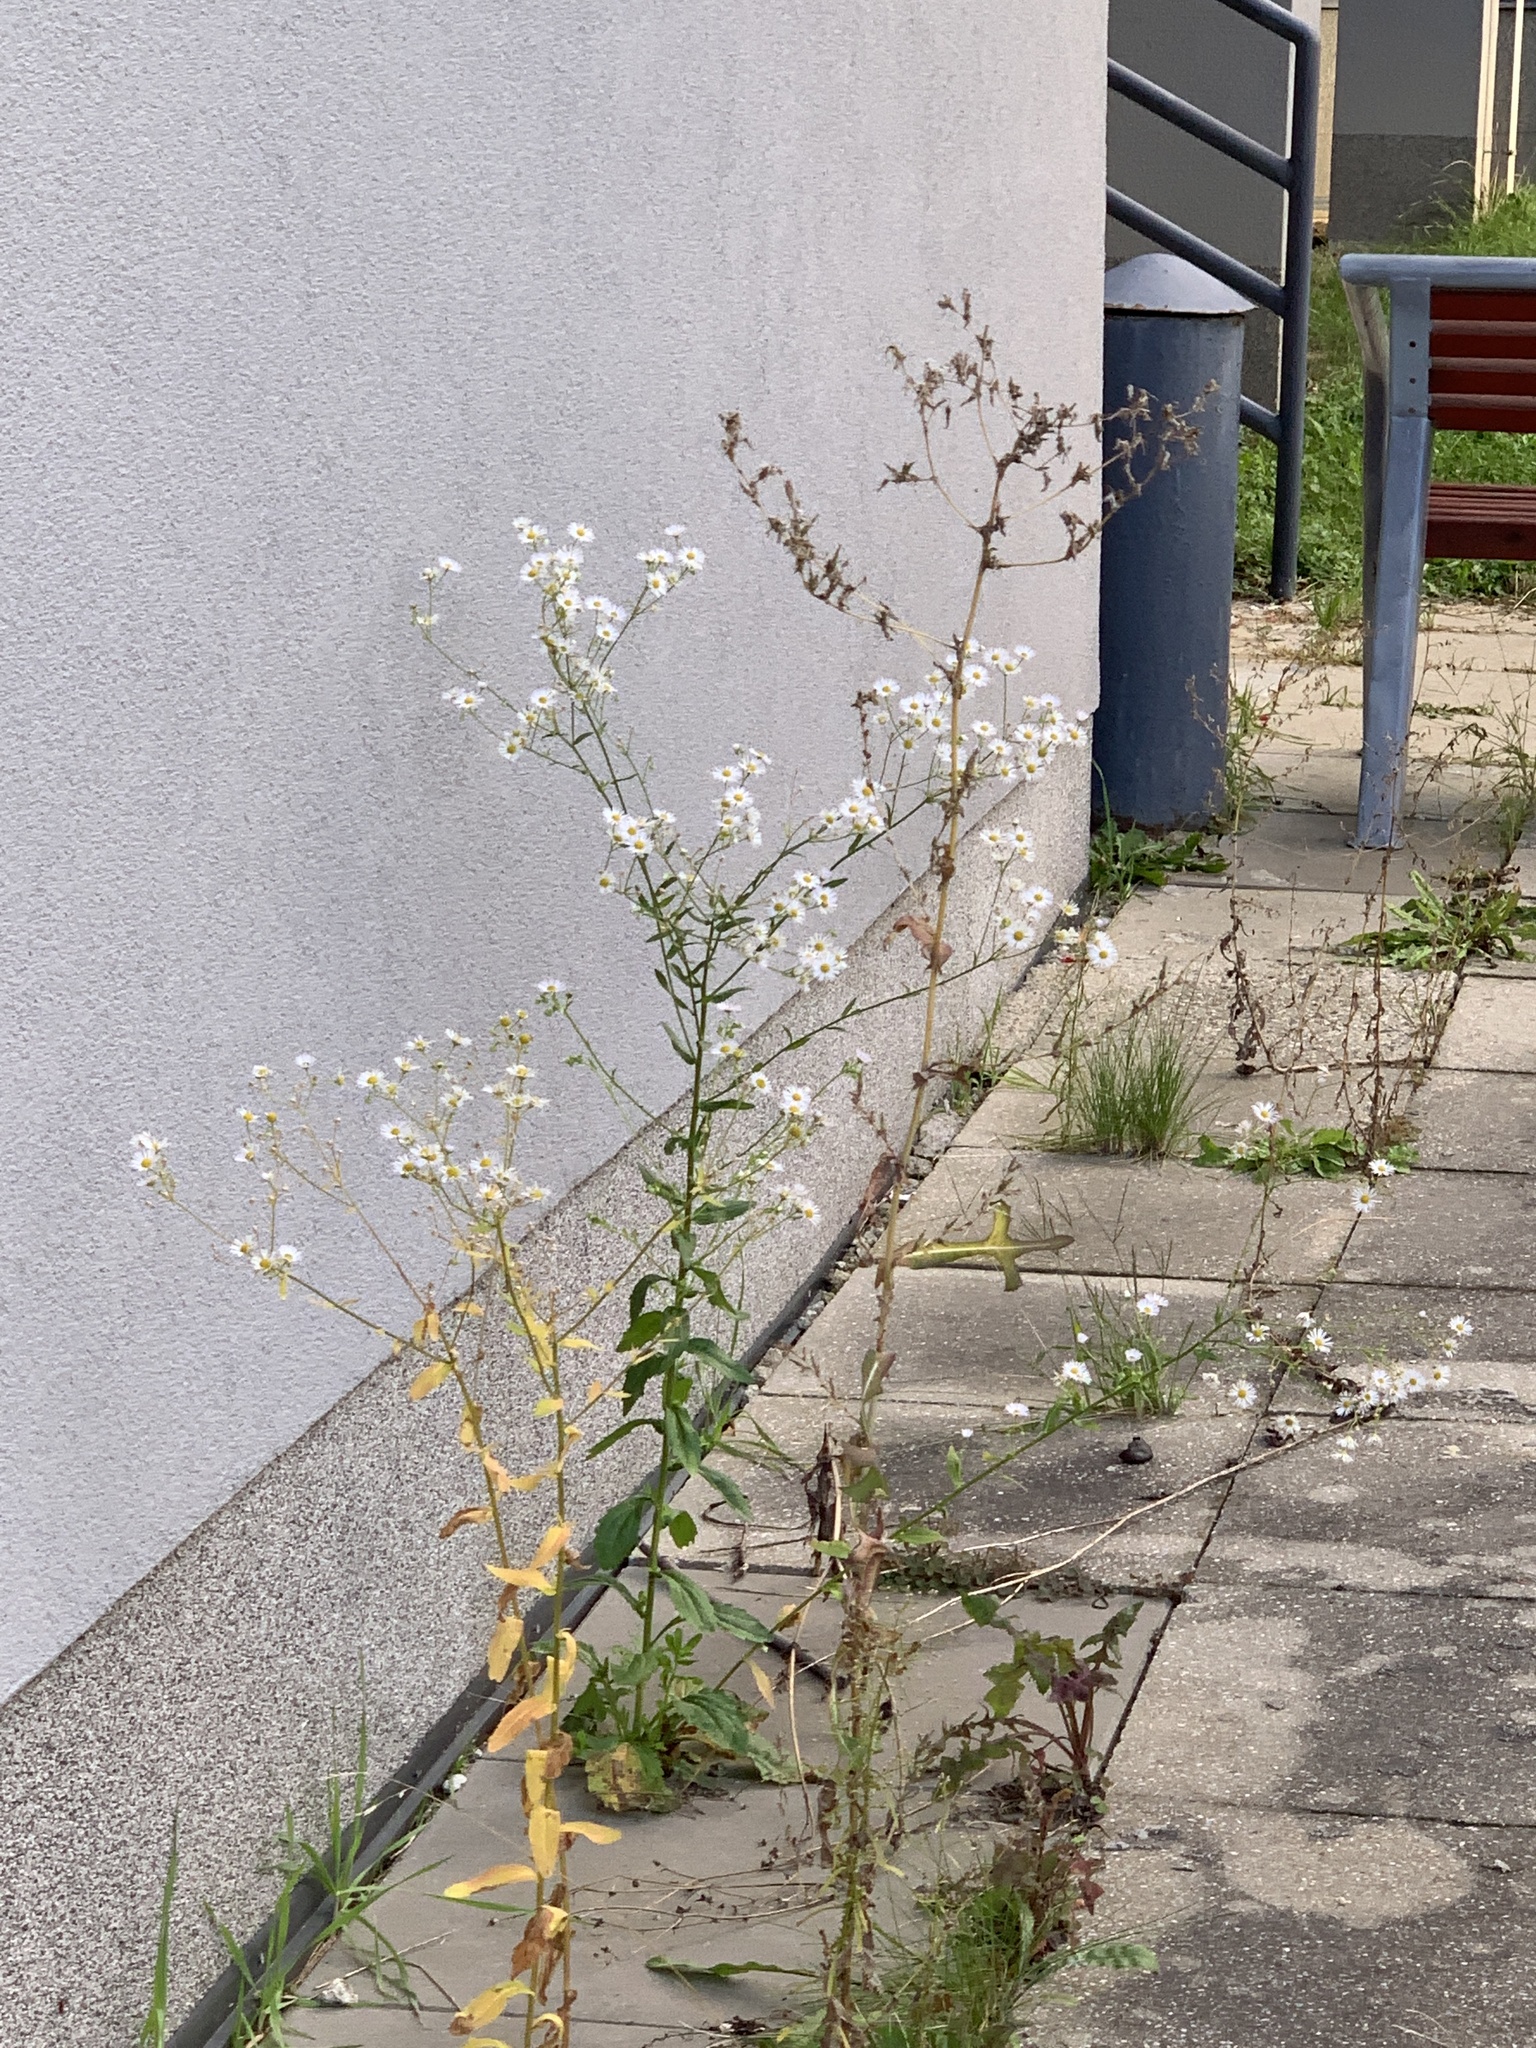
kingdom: Plantae
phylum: Tracheophyta
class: Magnoliopsida
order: Asterales
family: Asteraceae
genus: Erigeron
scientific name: Erigeron annuus
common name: Tall fleabane
